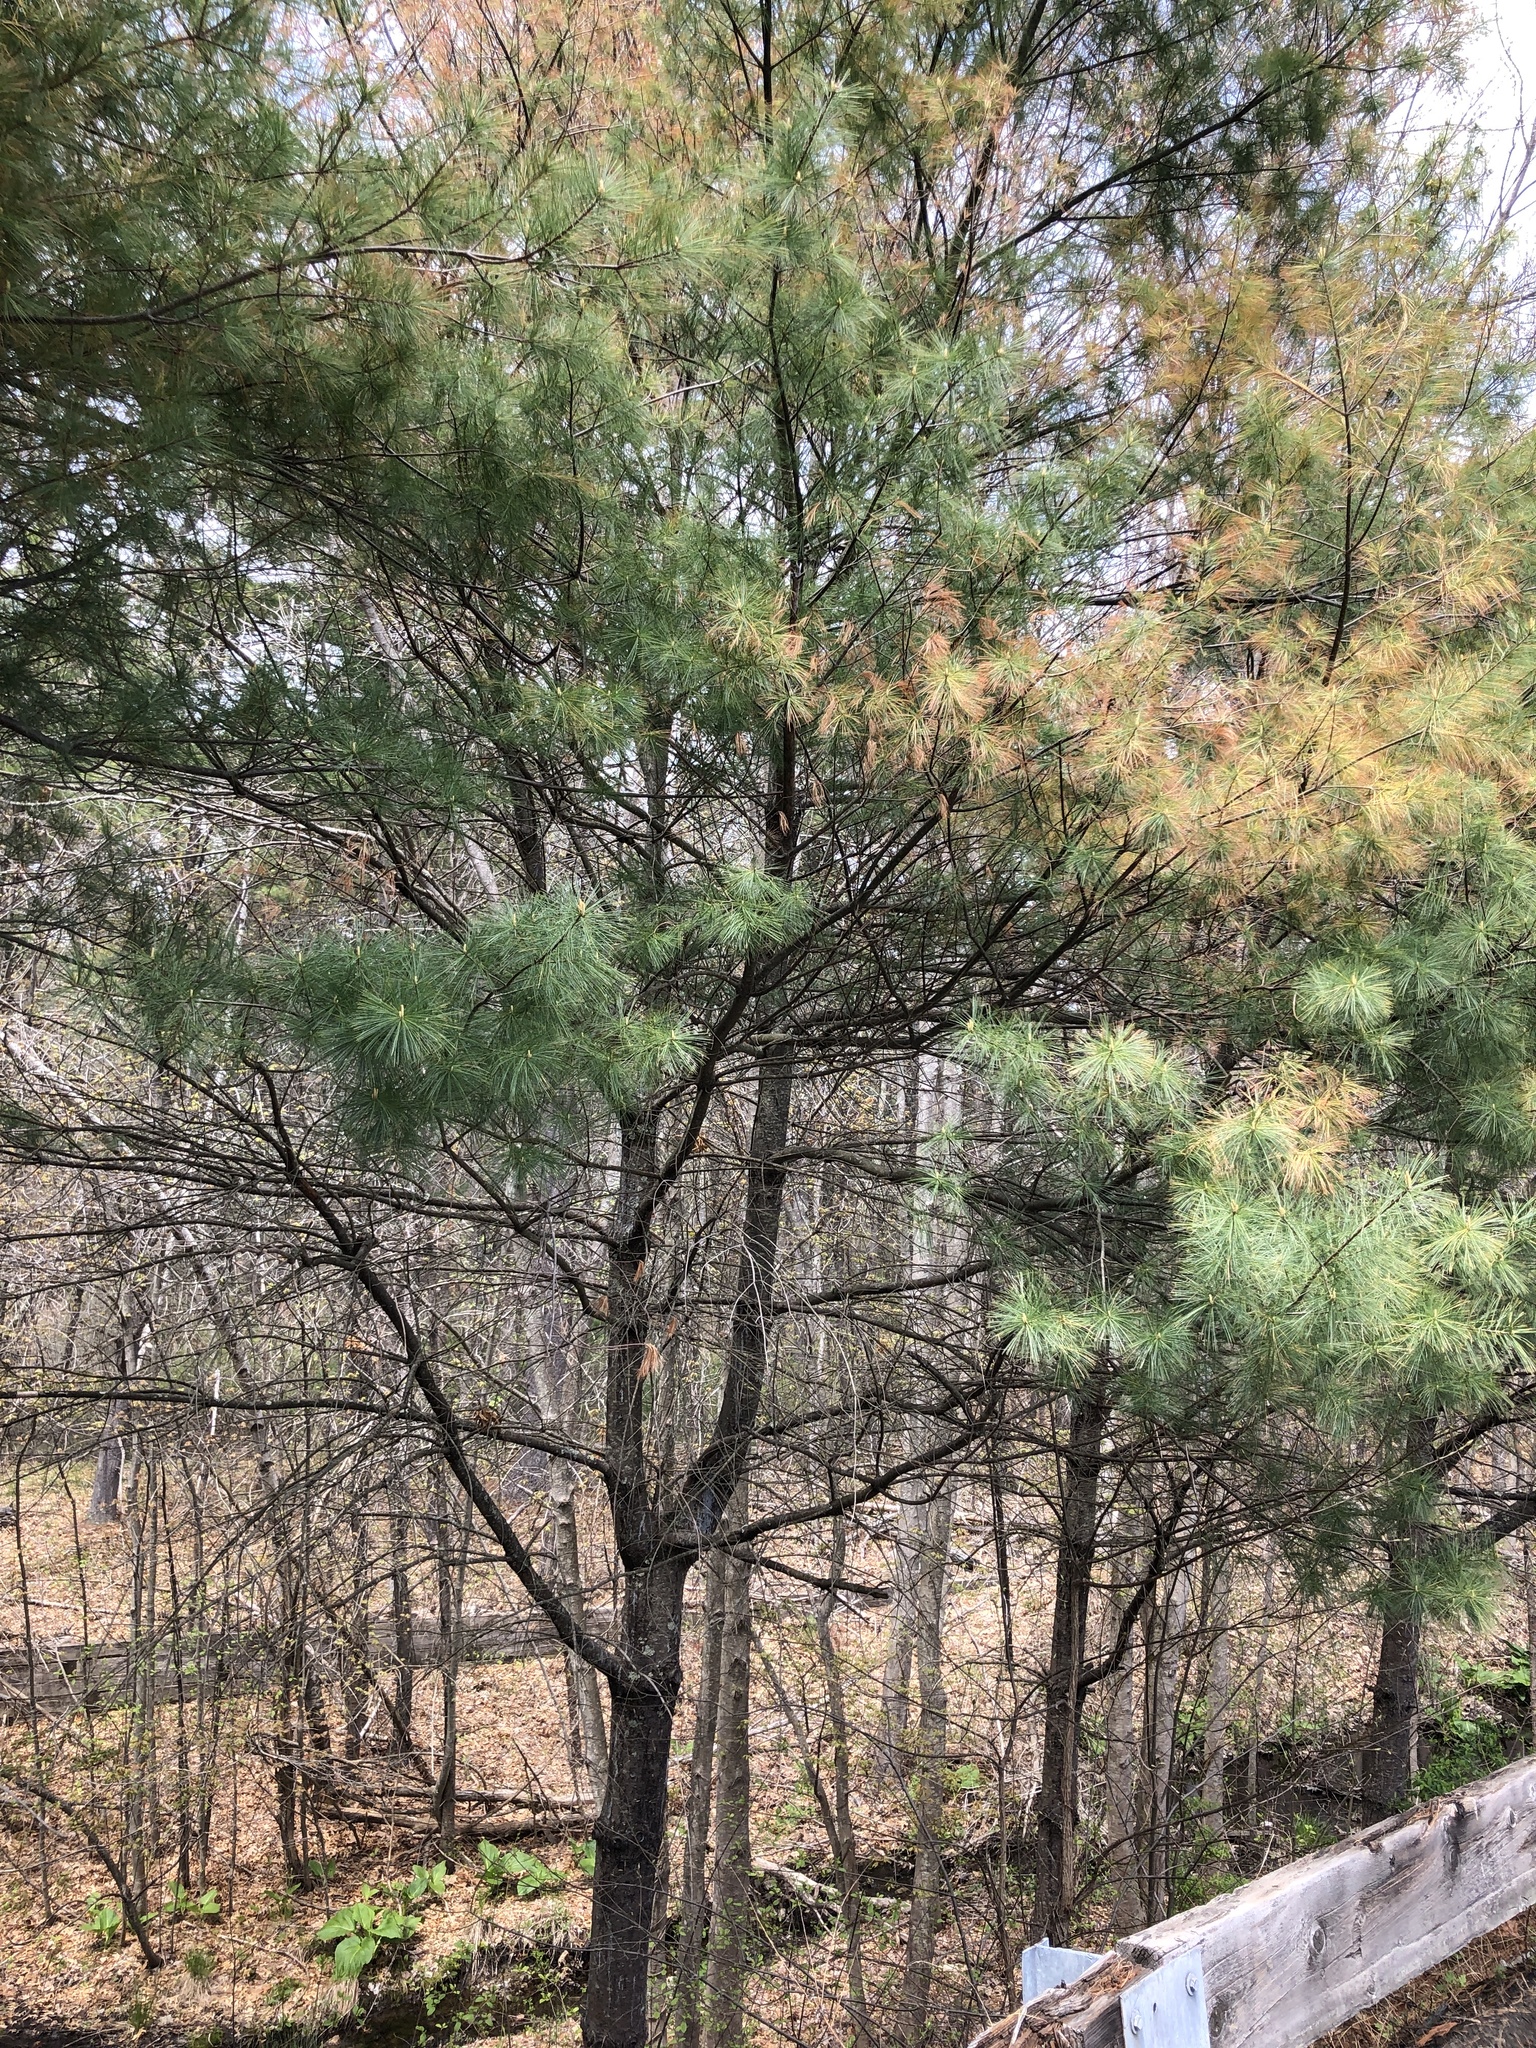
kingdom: Plantae
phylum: Tracheophyta
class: Pinopsida
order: Pinales
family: Pinaceae
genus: Pinus
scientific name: Pinus strobus
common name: Weymouth pine
